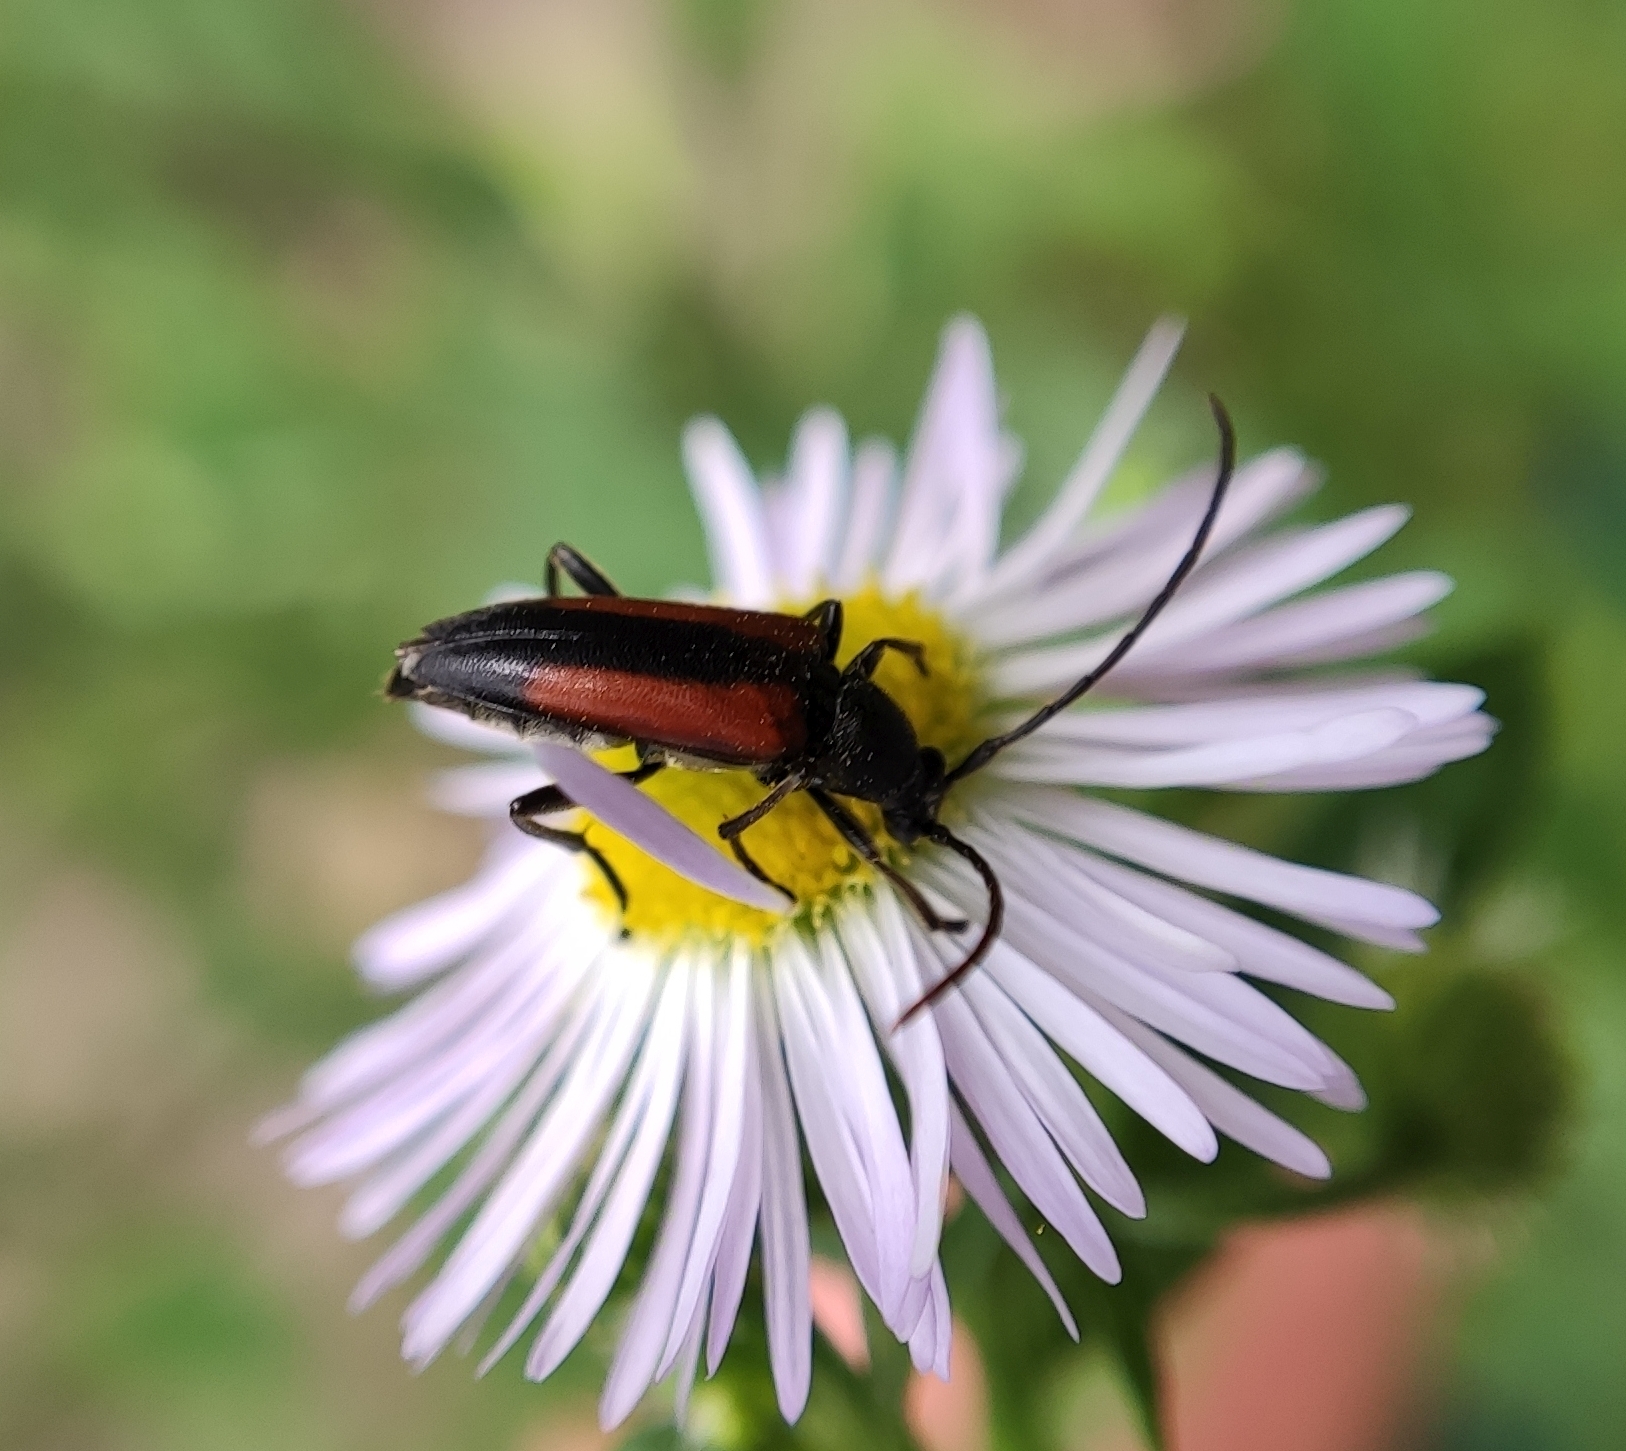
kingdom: Animalia
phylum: Arthropoda
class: Insecta
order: Coleoptera
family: Cerambycidae
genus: Stenurella
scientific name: Stenurella melanura
